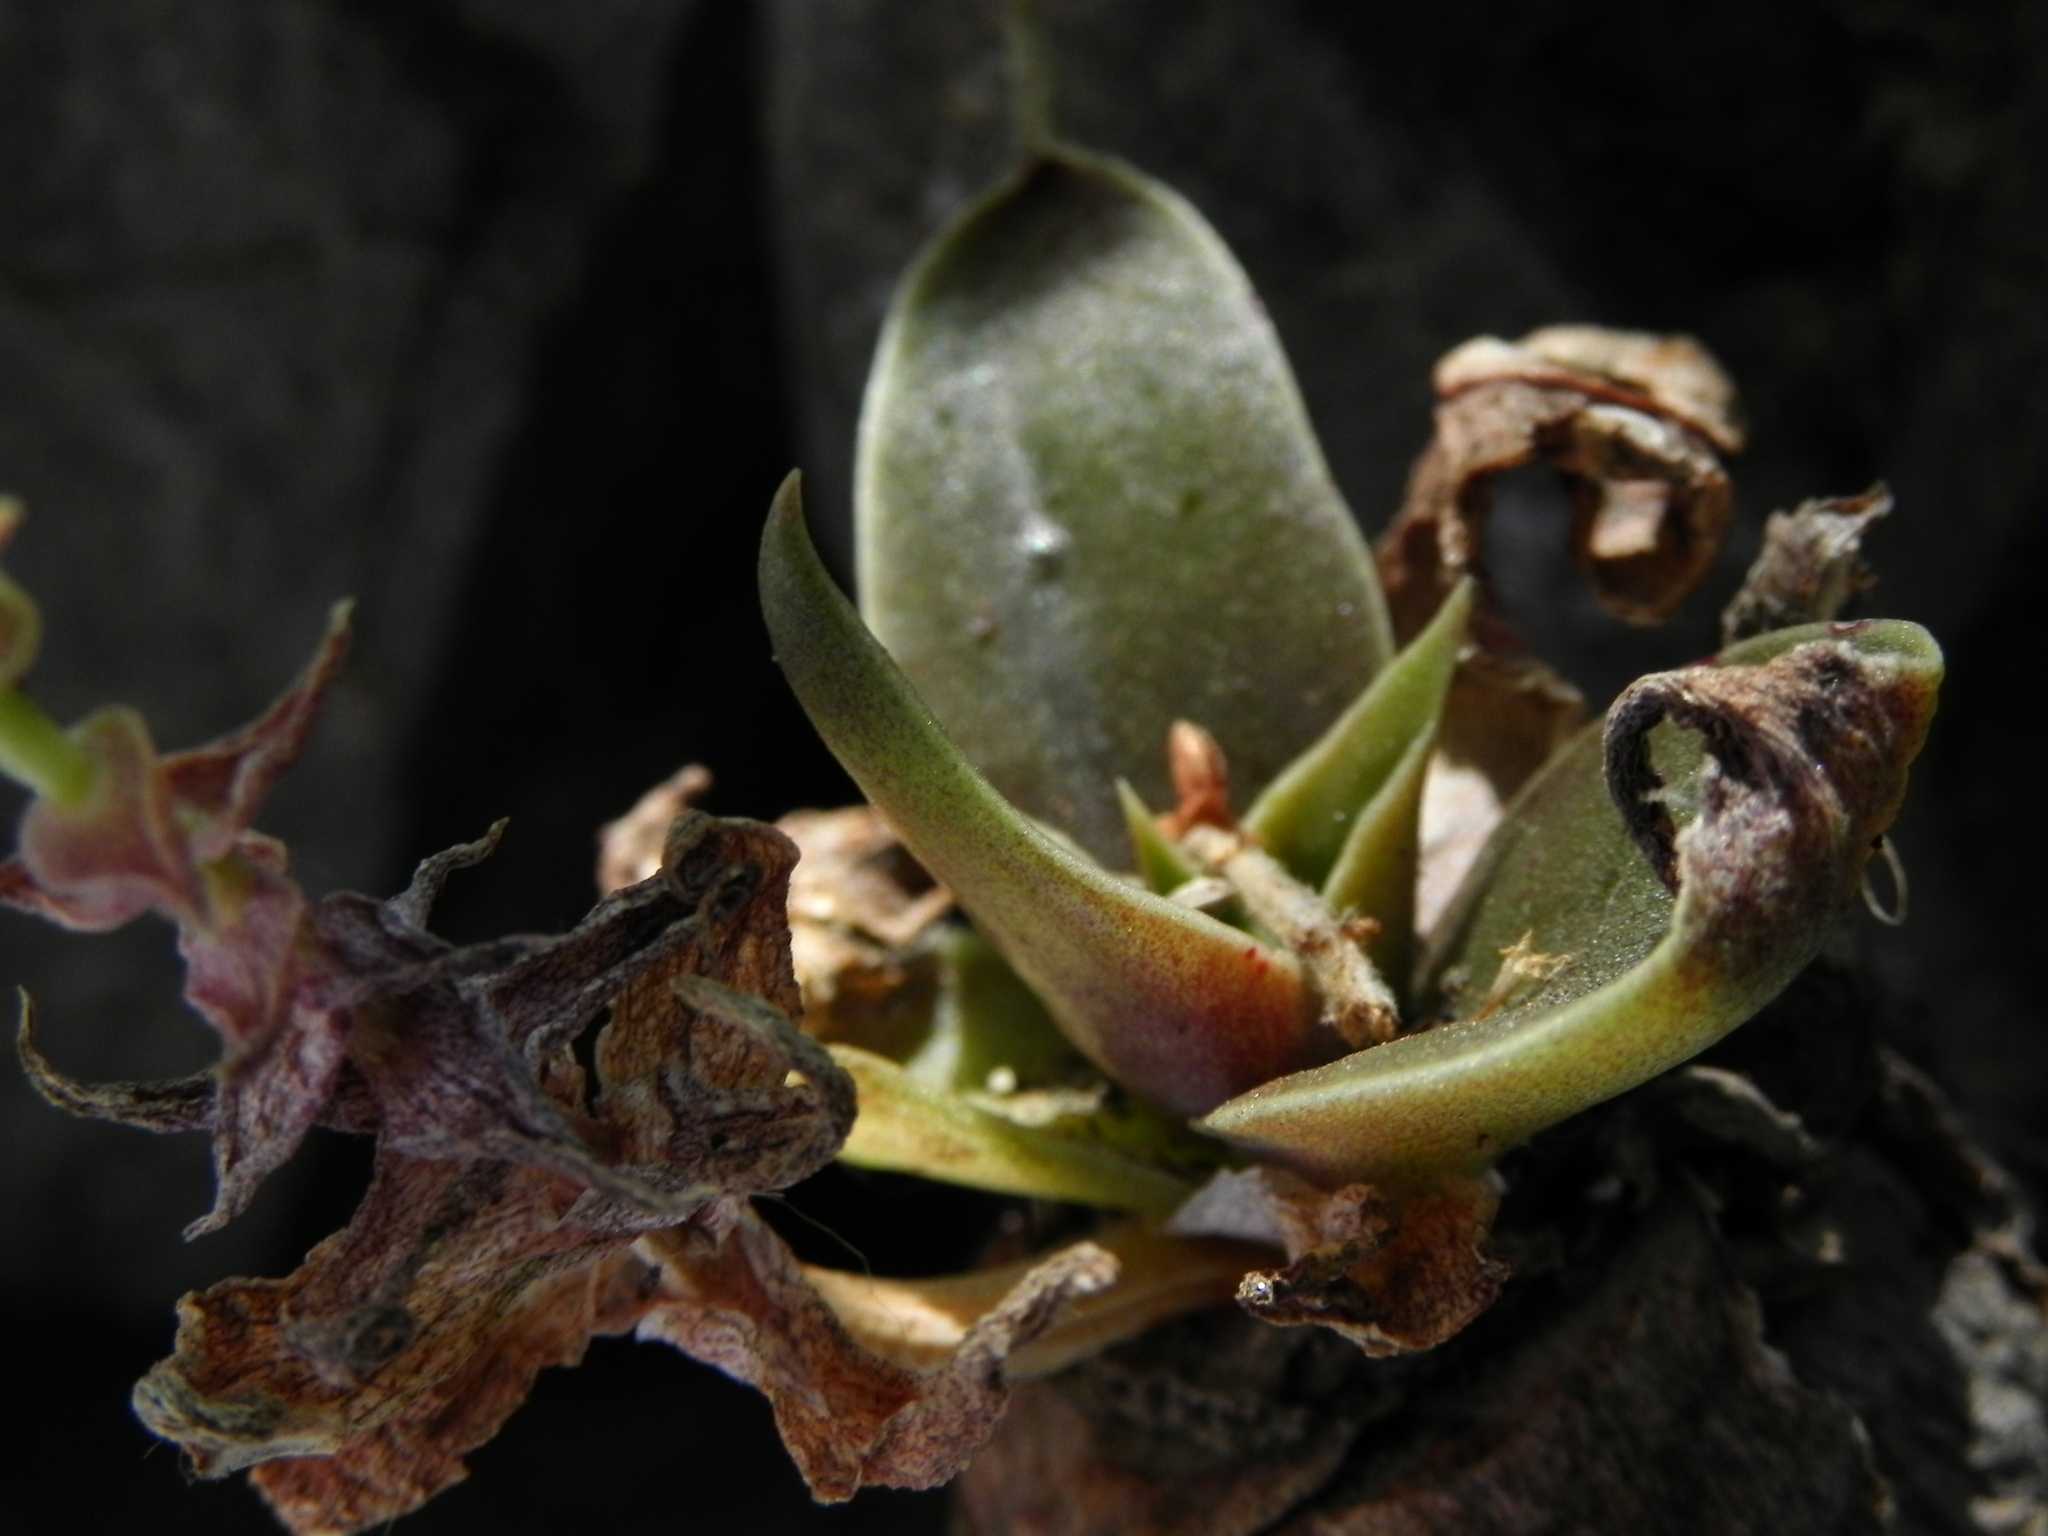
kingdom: Plantae
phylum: Tracheophyta
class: Magnoliopsida
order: Saxifragales
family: Crassulaceae
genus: Dudleya
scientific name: Dudleya cymosa
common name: Canyon dudleya
